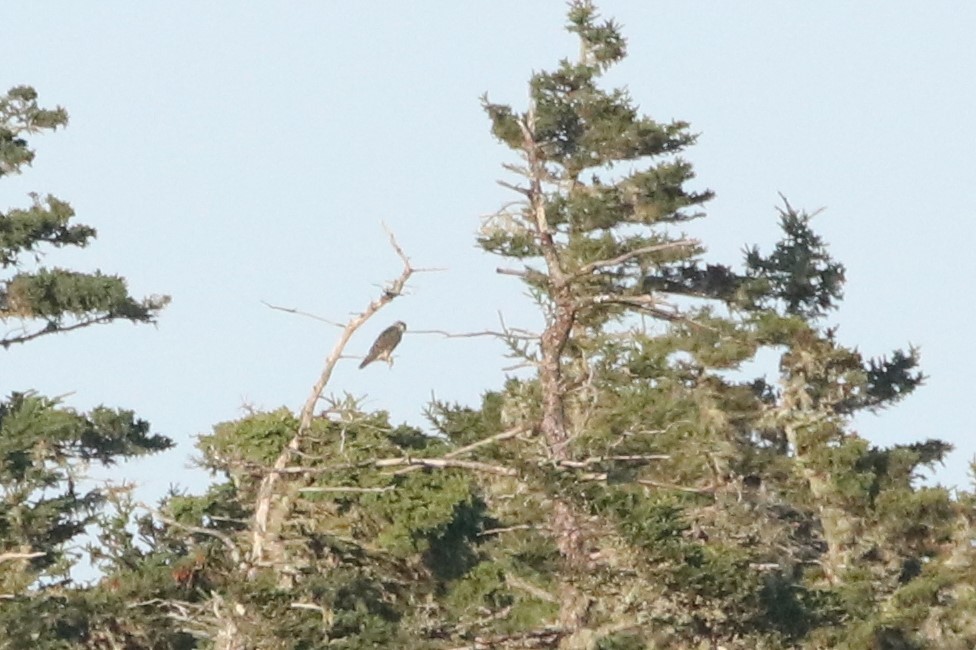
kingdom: Animalia
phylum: Chordata
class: Aves
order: Falconiformes
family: Falconidae
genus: Falco
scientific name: Falco columbarius
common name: Merlin
